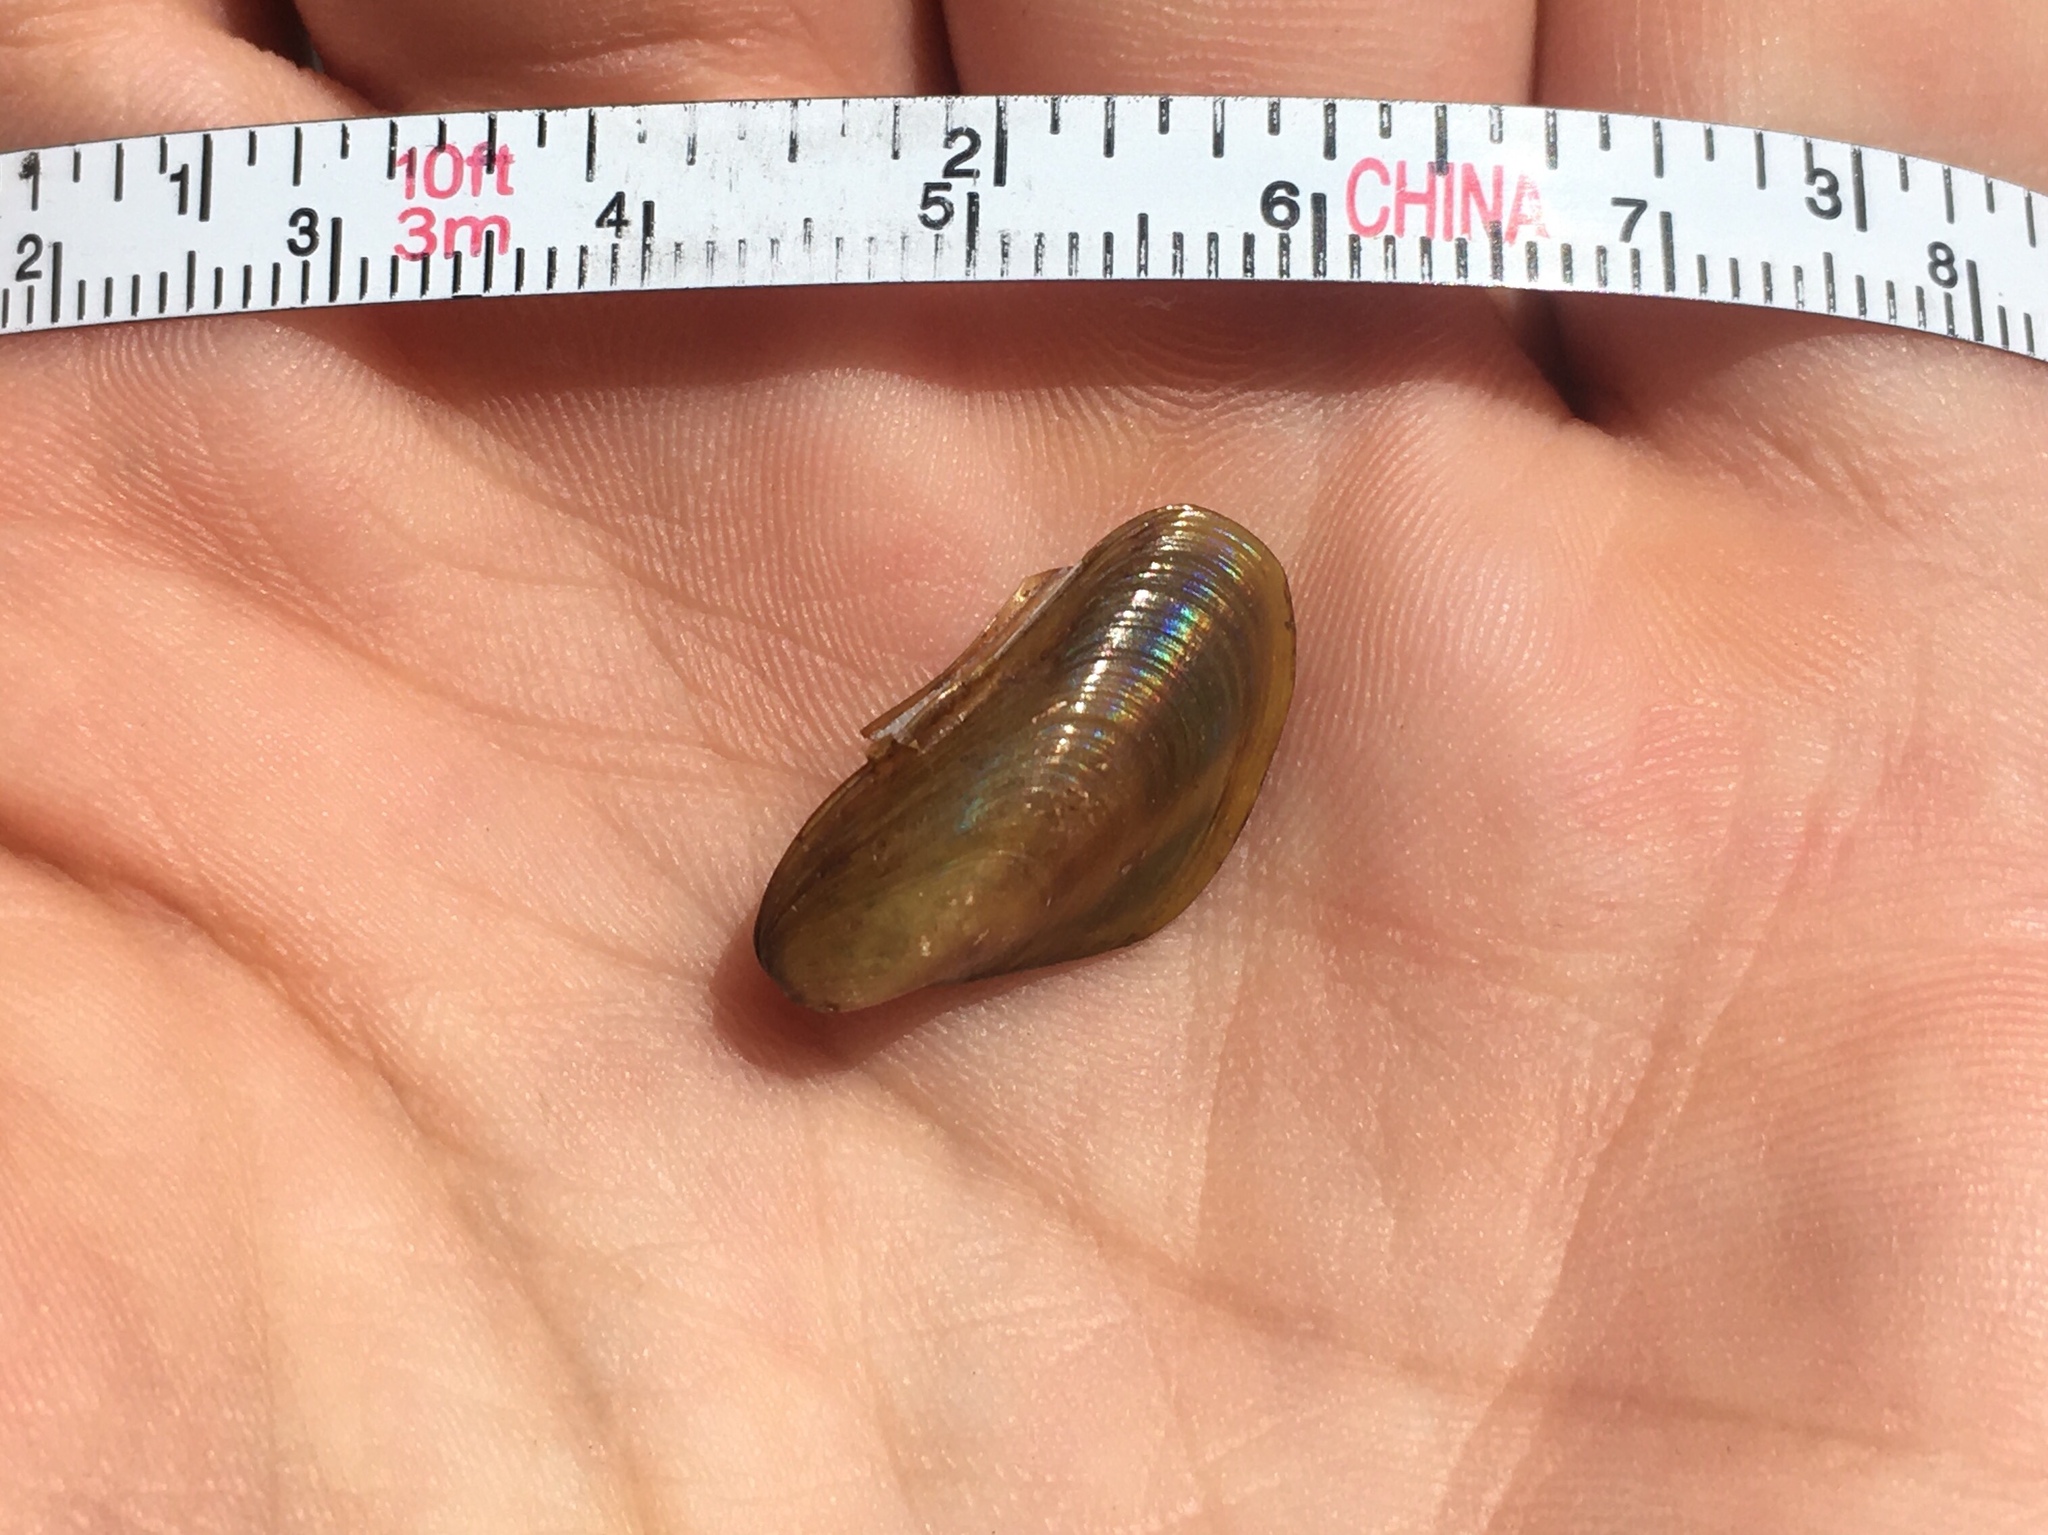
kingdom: Animalia
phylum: Mollusca
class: Bivalvia
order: Mytilida
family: Mytilidae
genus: Limnoperna
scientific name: Limnoperna fortunei
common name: Golden mussel
